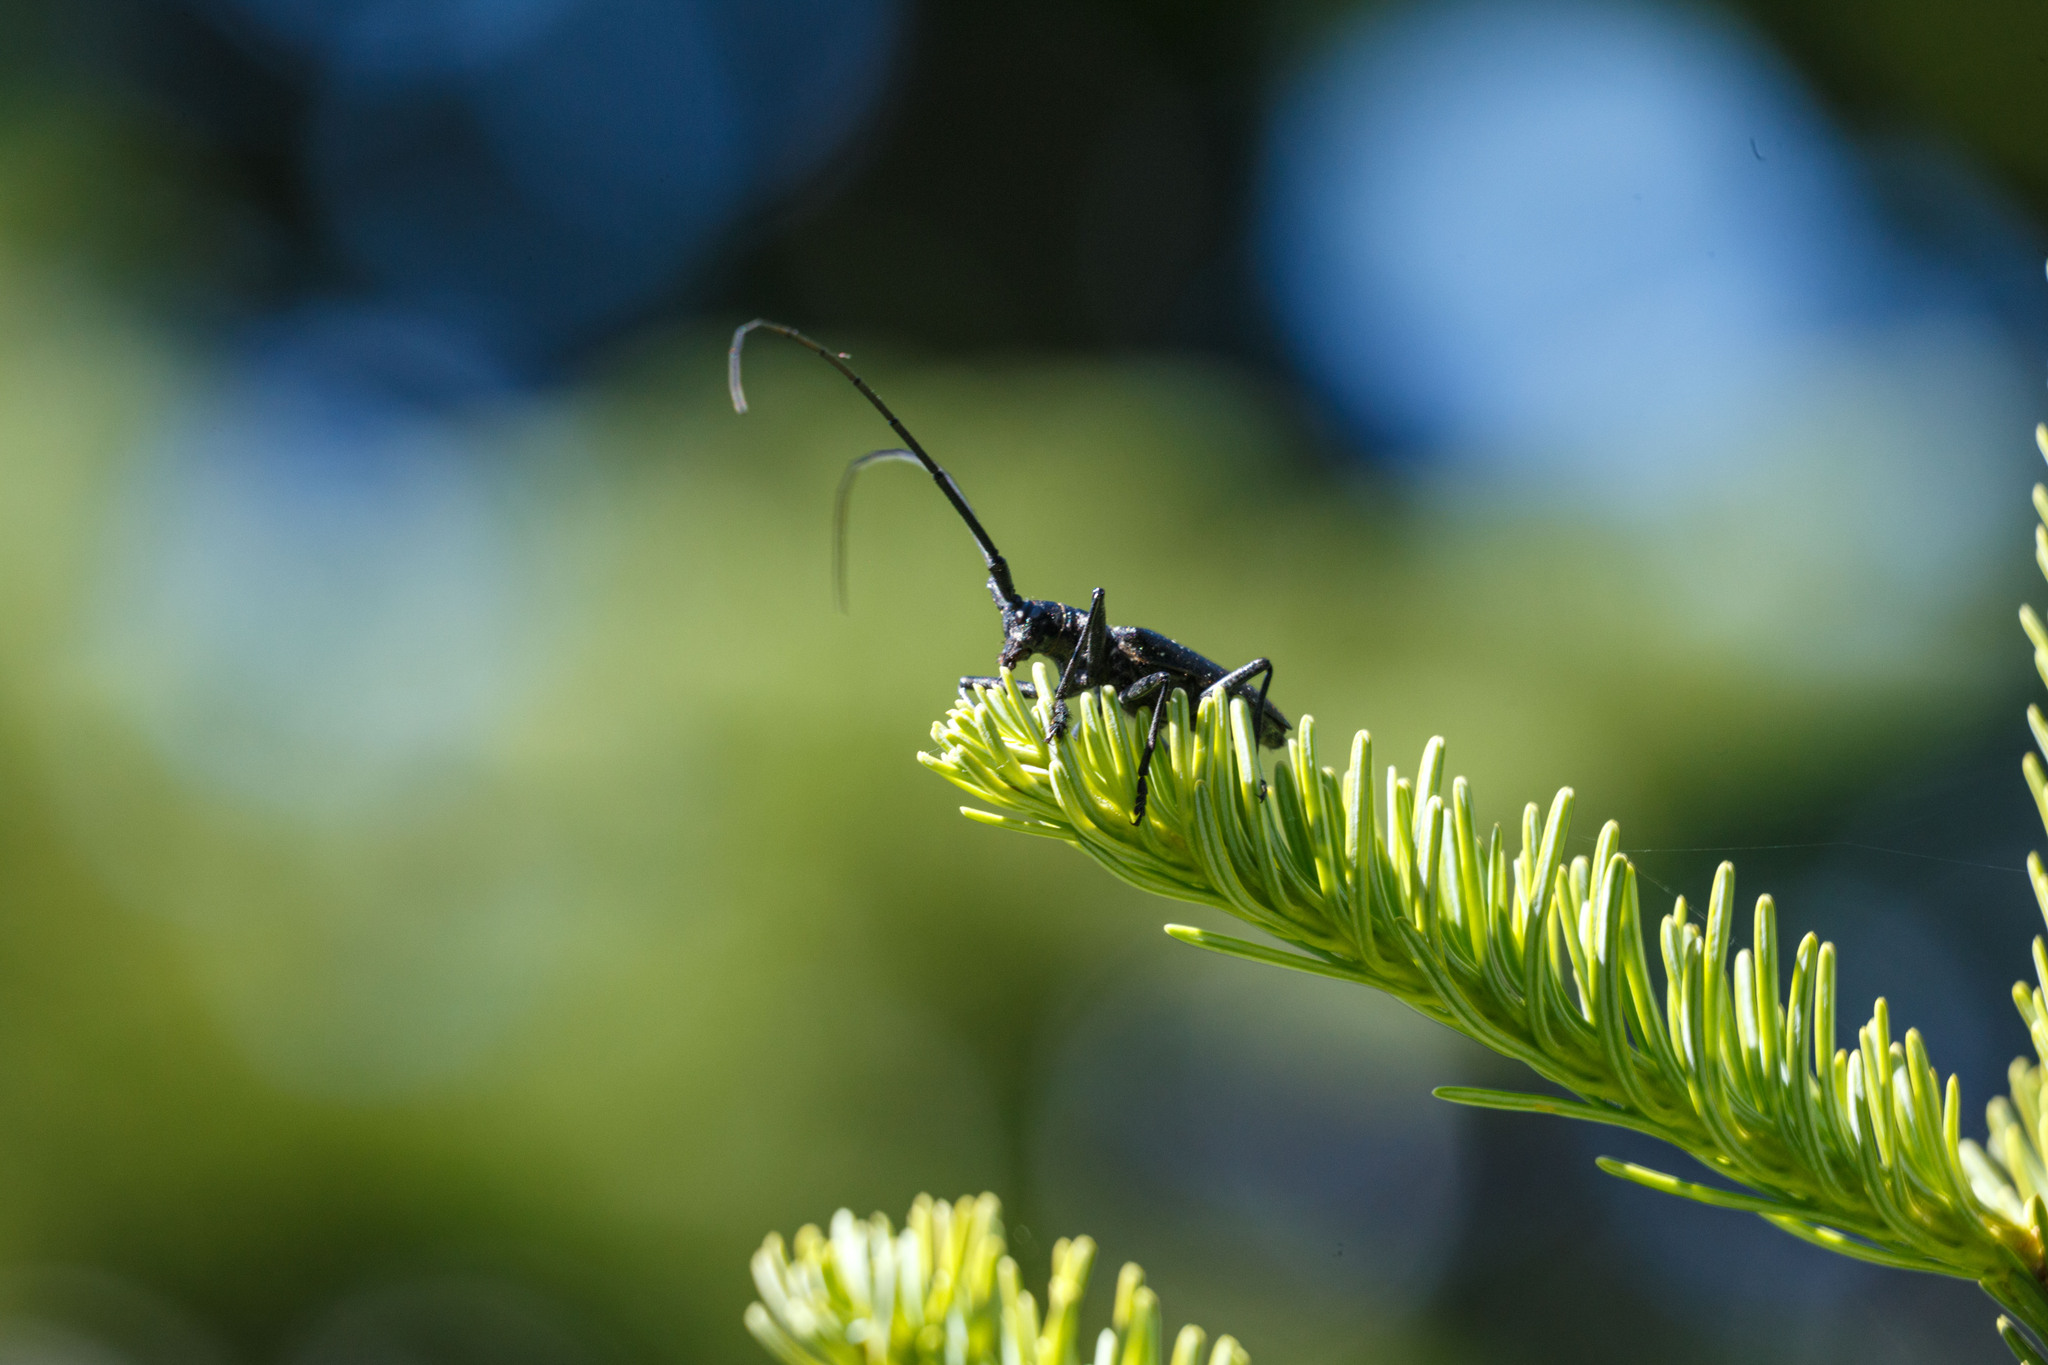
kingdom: Animalia
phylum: Arthropoda
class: Insecta
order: Coleoptera
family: Cerambycidae
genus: Monochamus
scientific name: Monochamus scutellatus
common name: White-spotted sawyer beetle
